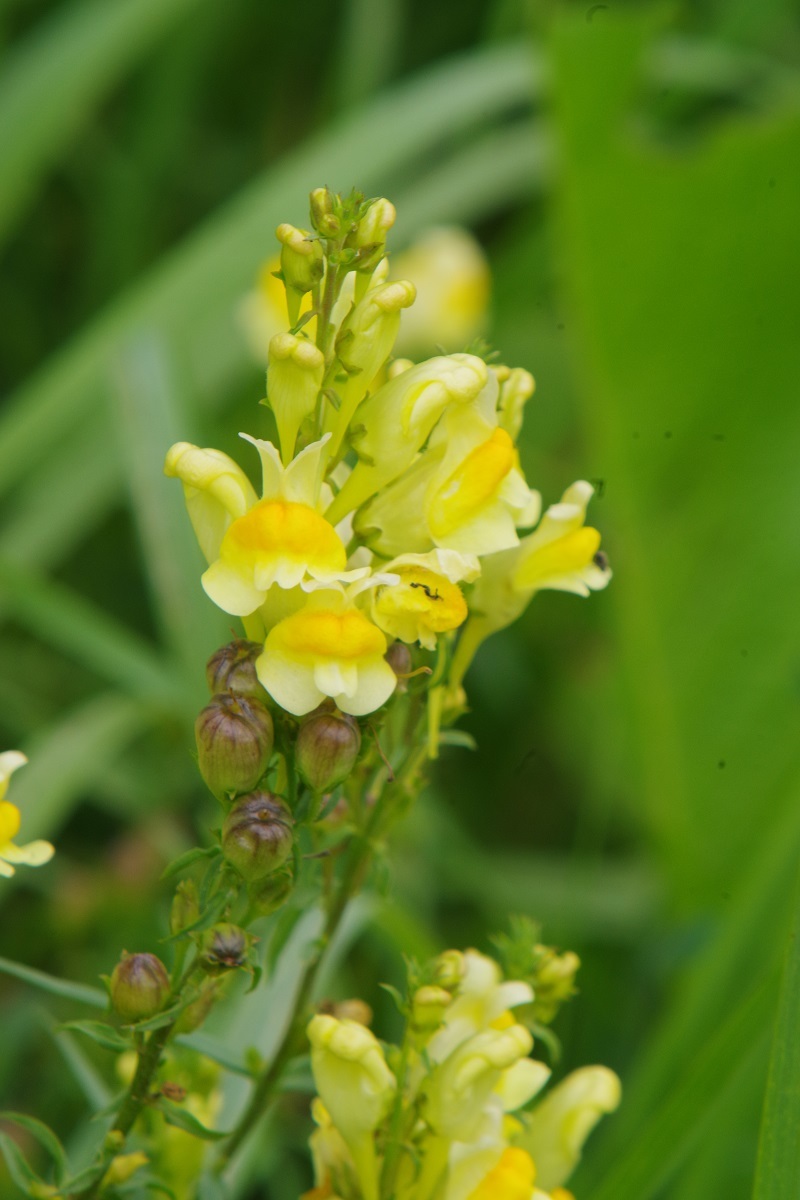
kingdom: Plantae
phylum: Tracheophyta
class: Magnoliopsida
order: Lamiales
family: Plantaginaceae
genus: Linaria
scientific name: Linaria vulgaris
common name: Butter and eggs
